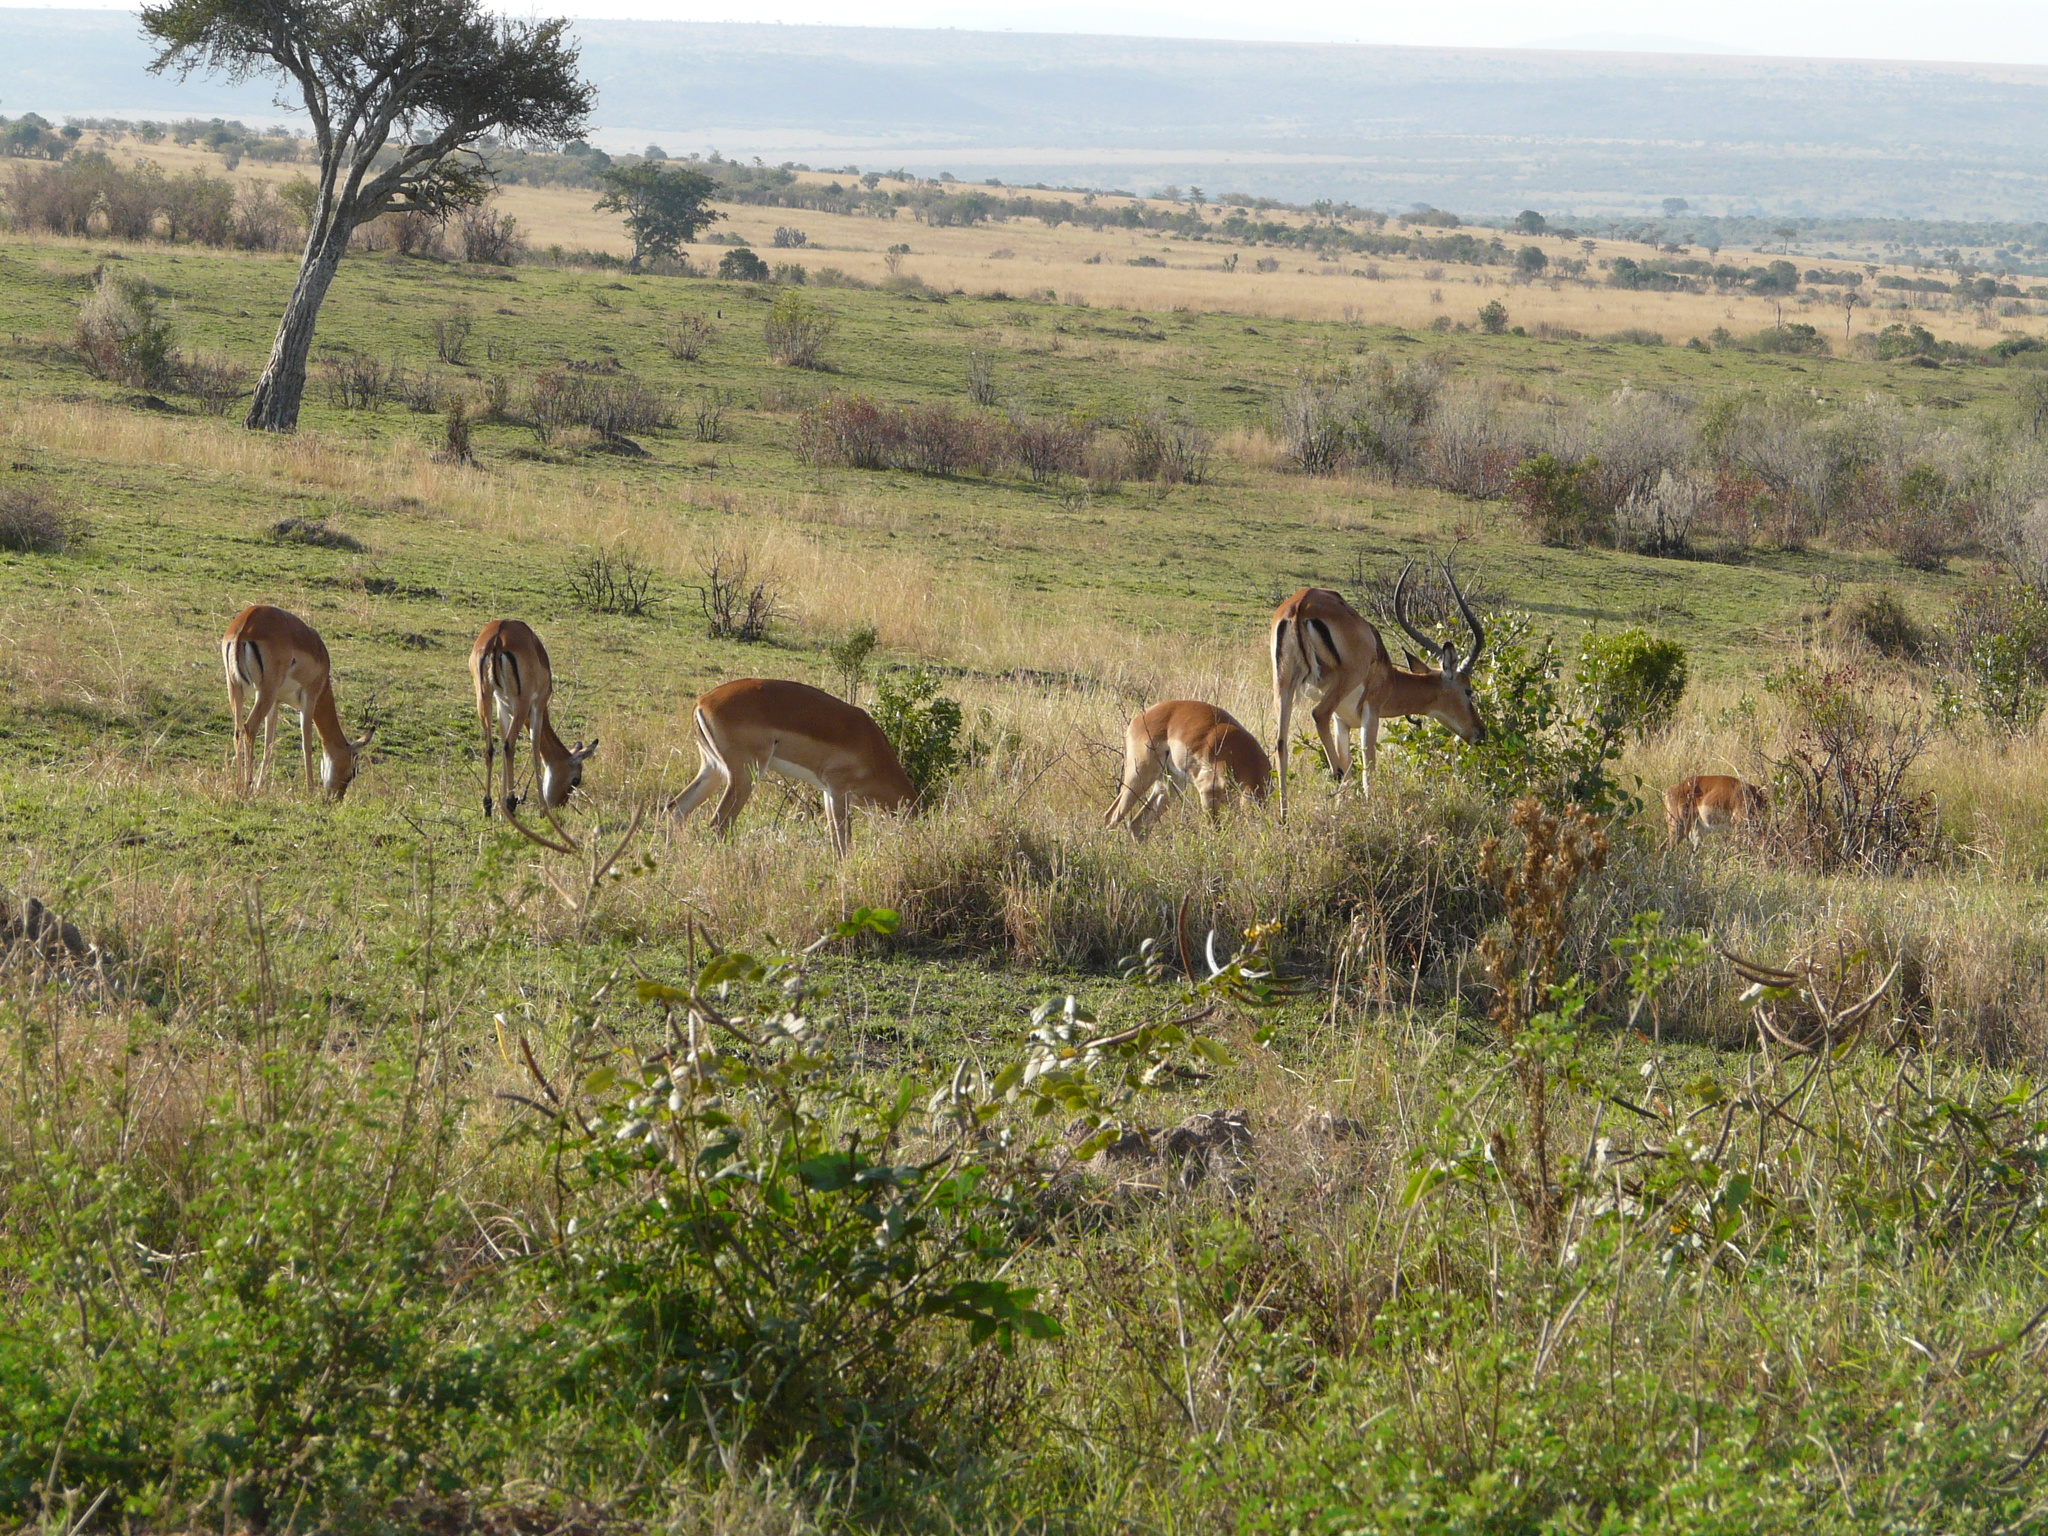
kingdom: Animalia
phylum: Chordata
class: Mammalia
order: Artiodactyla
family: Bovidae
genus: Aepyceros
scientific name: Aepyceros melampus
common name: Impala
